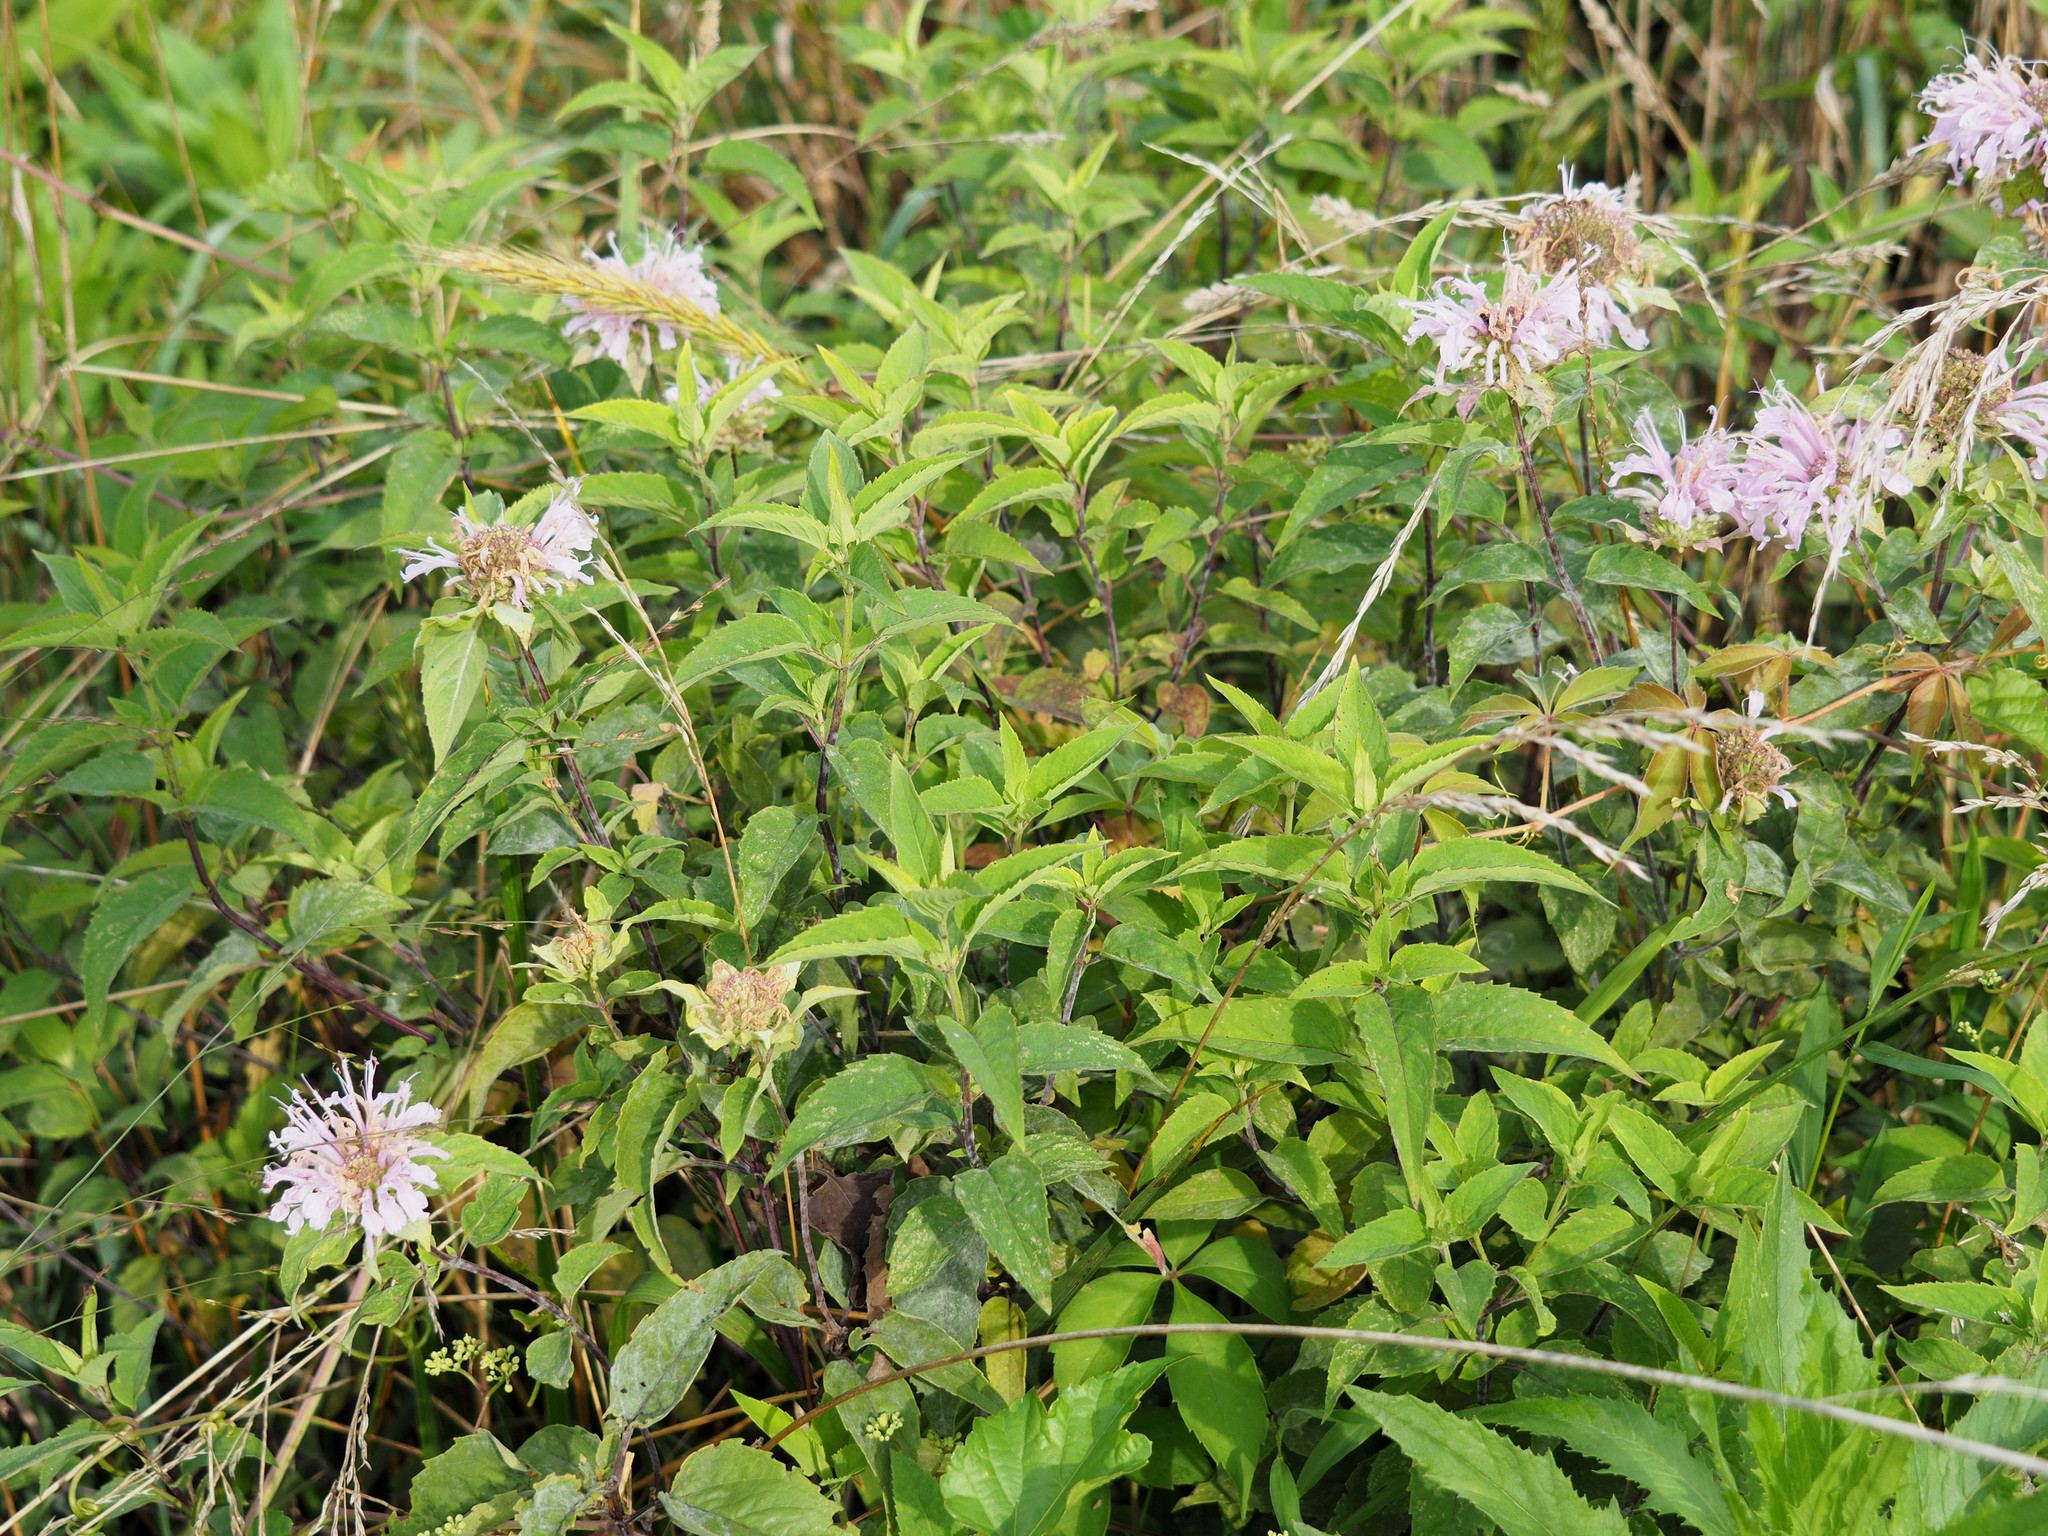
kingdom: Plantae
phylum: Tracheophyta
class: Magnoliopsida
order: Lamiales
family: Lamiaceae
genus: Monarda
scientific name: Monarda fistulosa
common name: Purple beebalm
